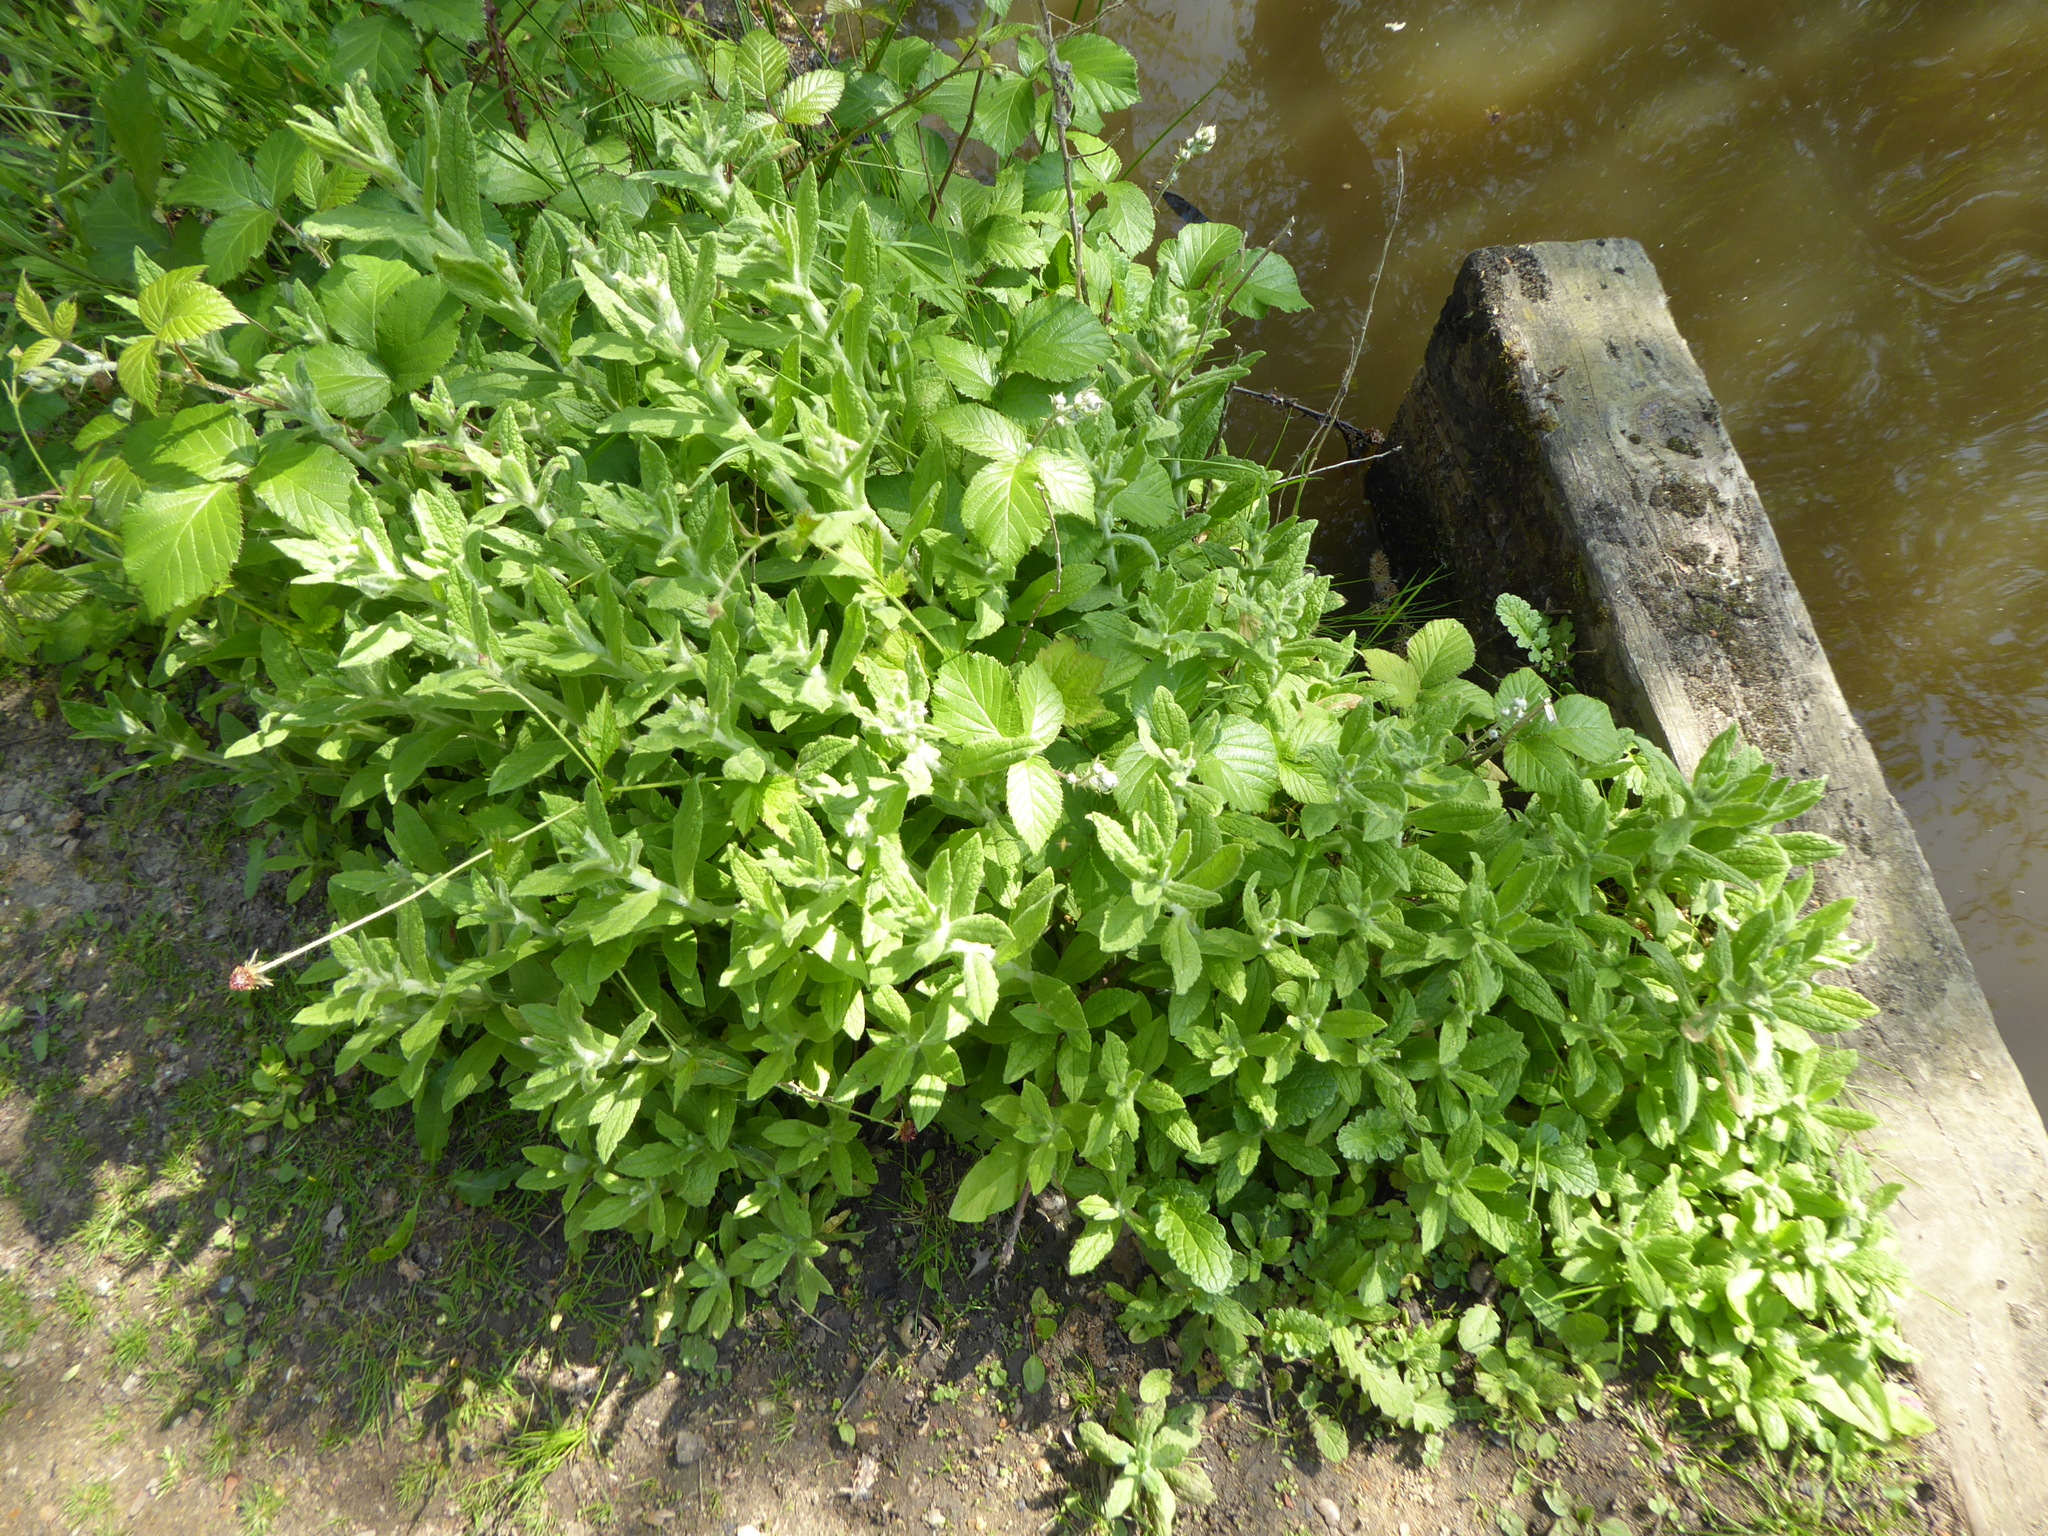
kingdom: Plantae
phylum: Tracheophyta
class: Magnoliopsida
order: Asterales
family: Asteraceae
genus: Pulicaria
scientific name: Pulicaria dysenterica
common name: Common fleabane
